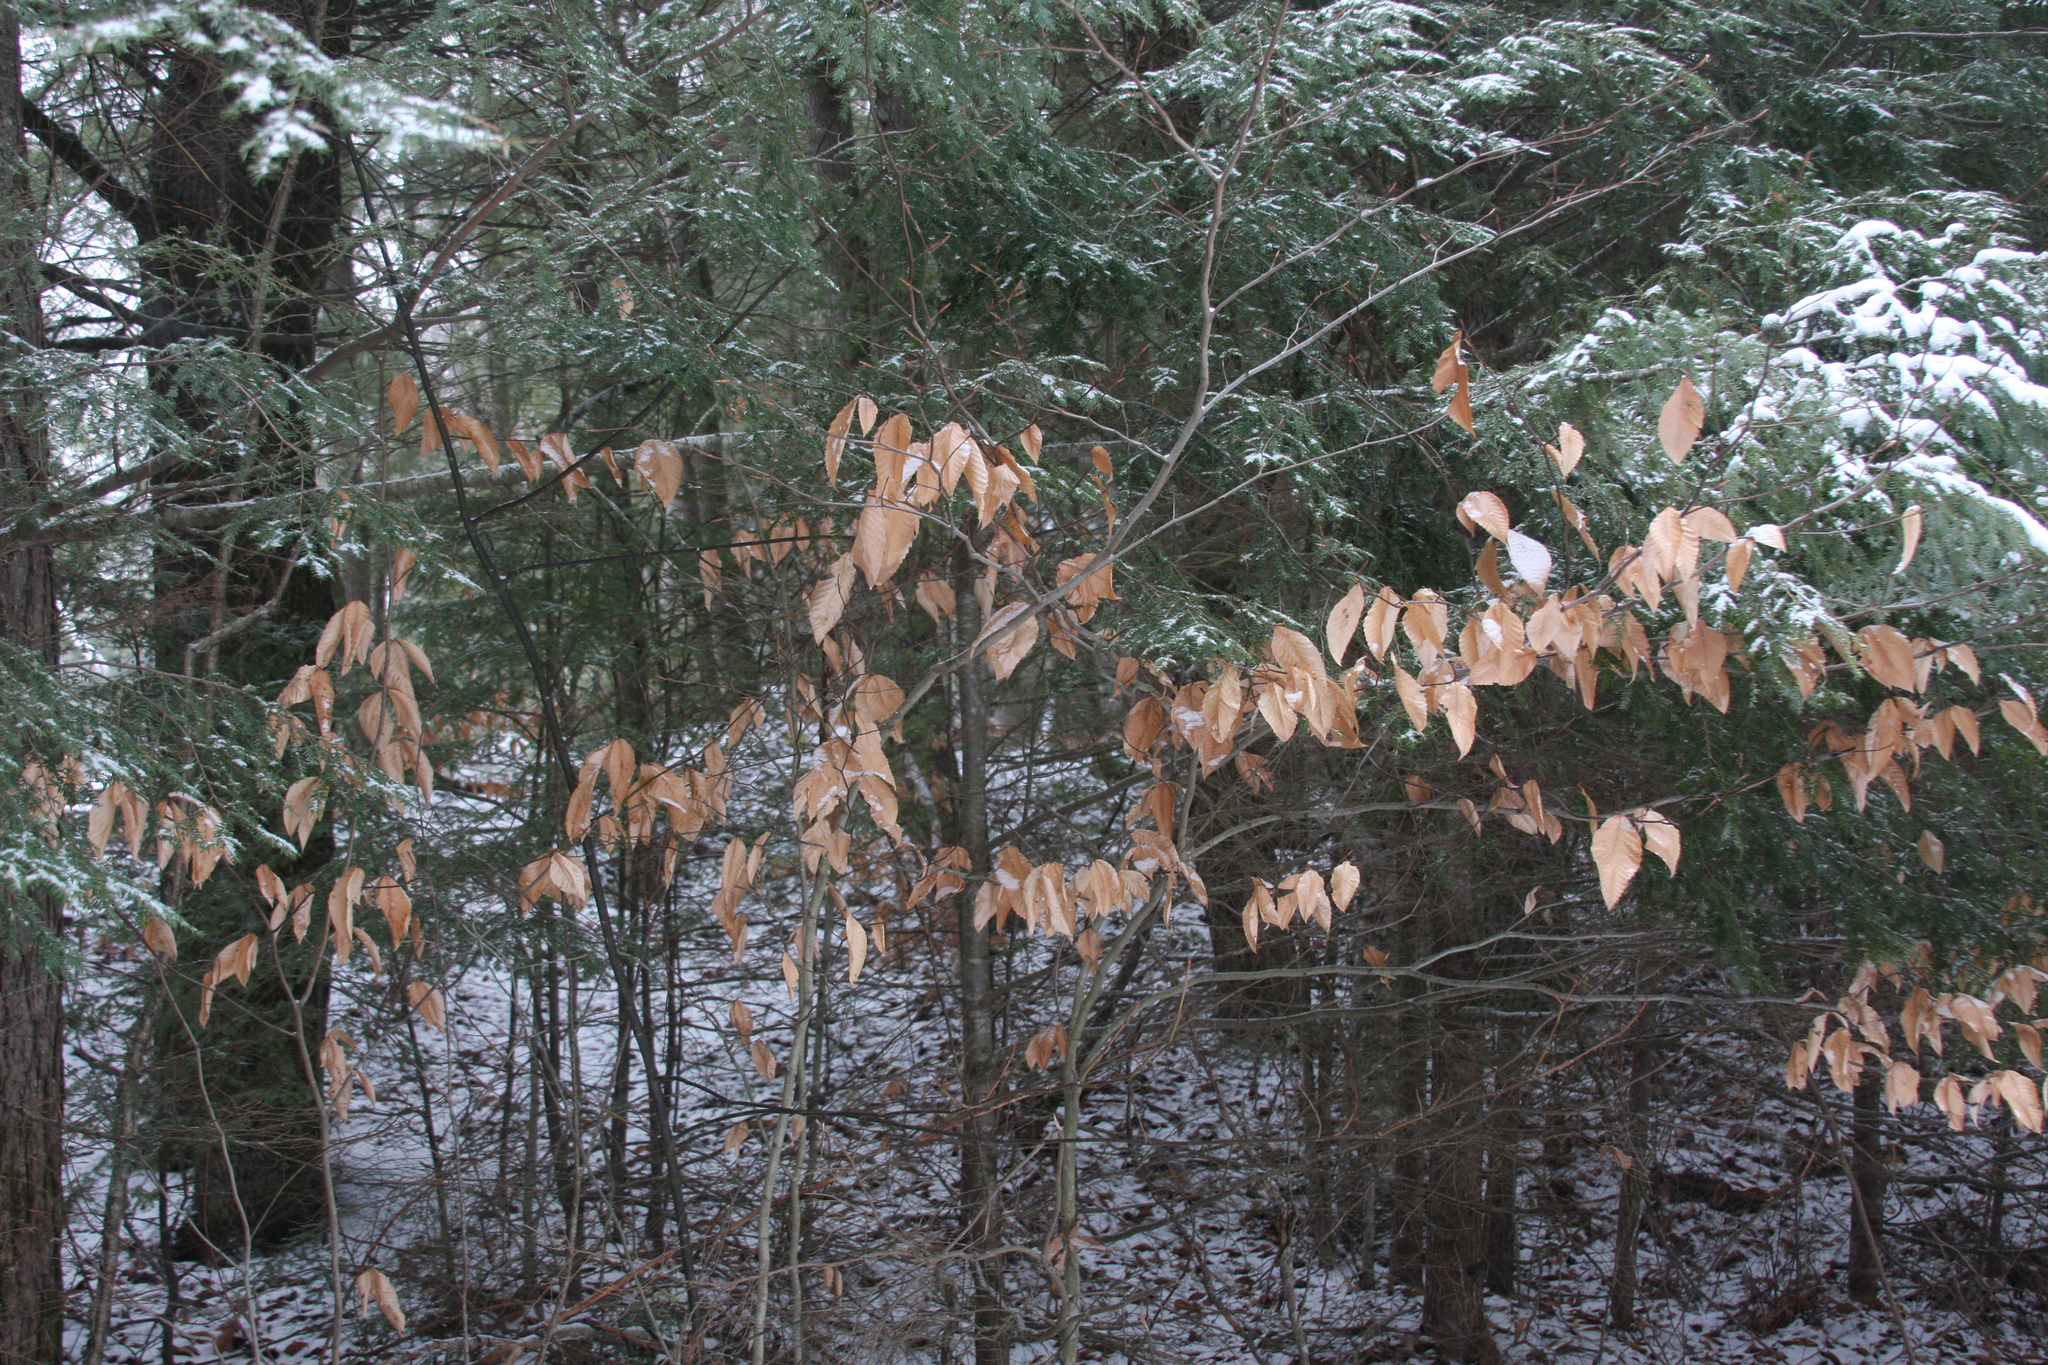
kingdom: Plantae
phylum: Tracheophyta
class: Magnoliopsida
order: Fagales
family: Fagaceae
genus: Fagus
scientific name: Fagus grandifolia
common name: American beech
